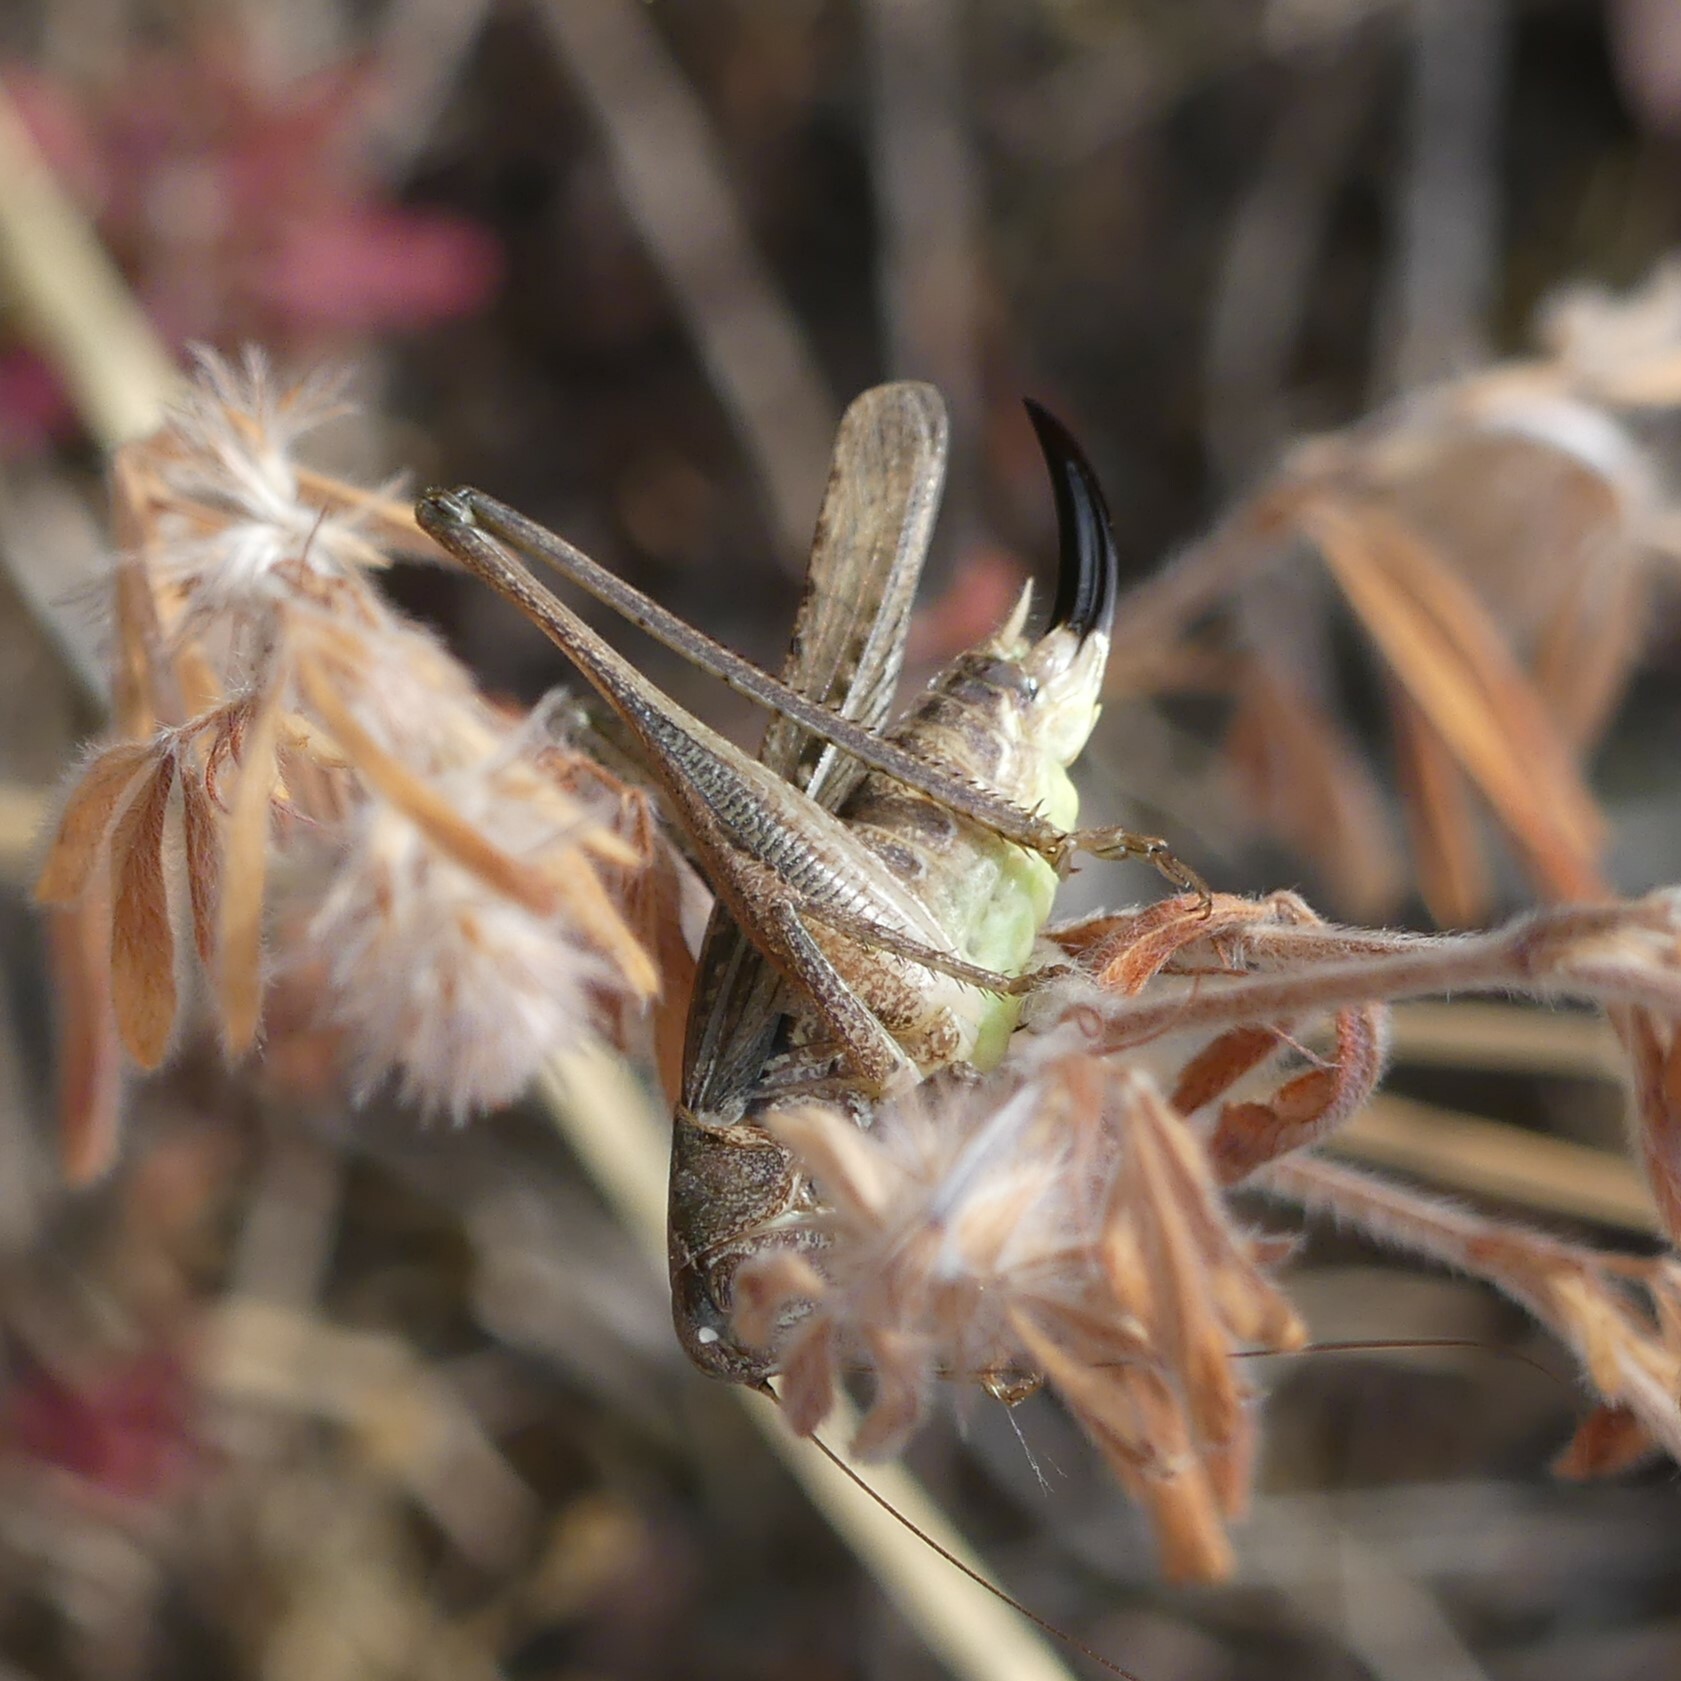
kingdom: Animalia
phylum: Arthropoda
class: Insecta
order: Orthoptera
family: Tettigoniidae
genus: Platycleis
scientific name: Platycleis albopunctata
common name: Grey bush-cricket
